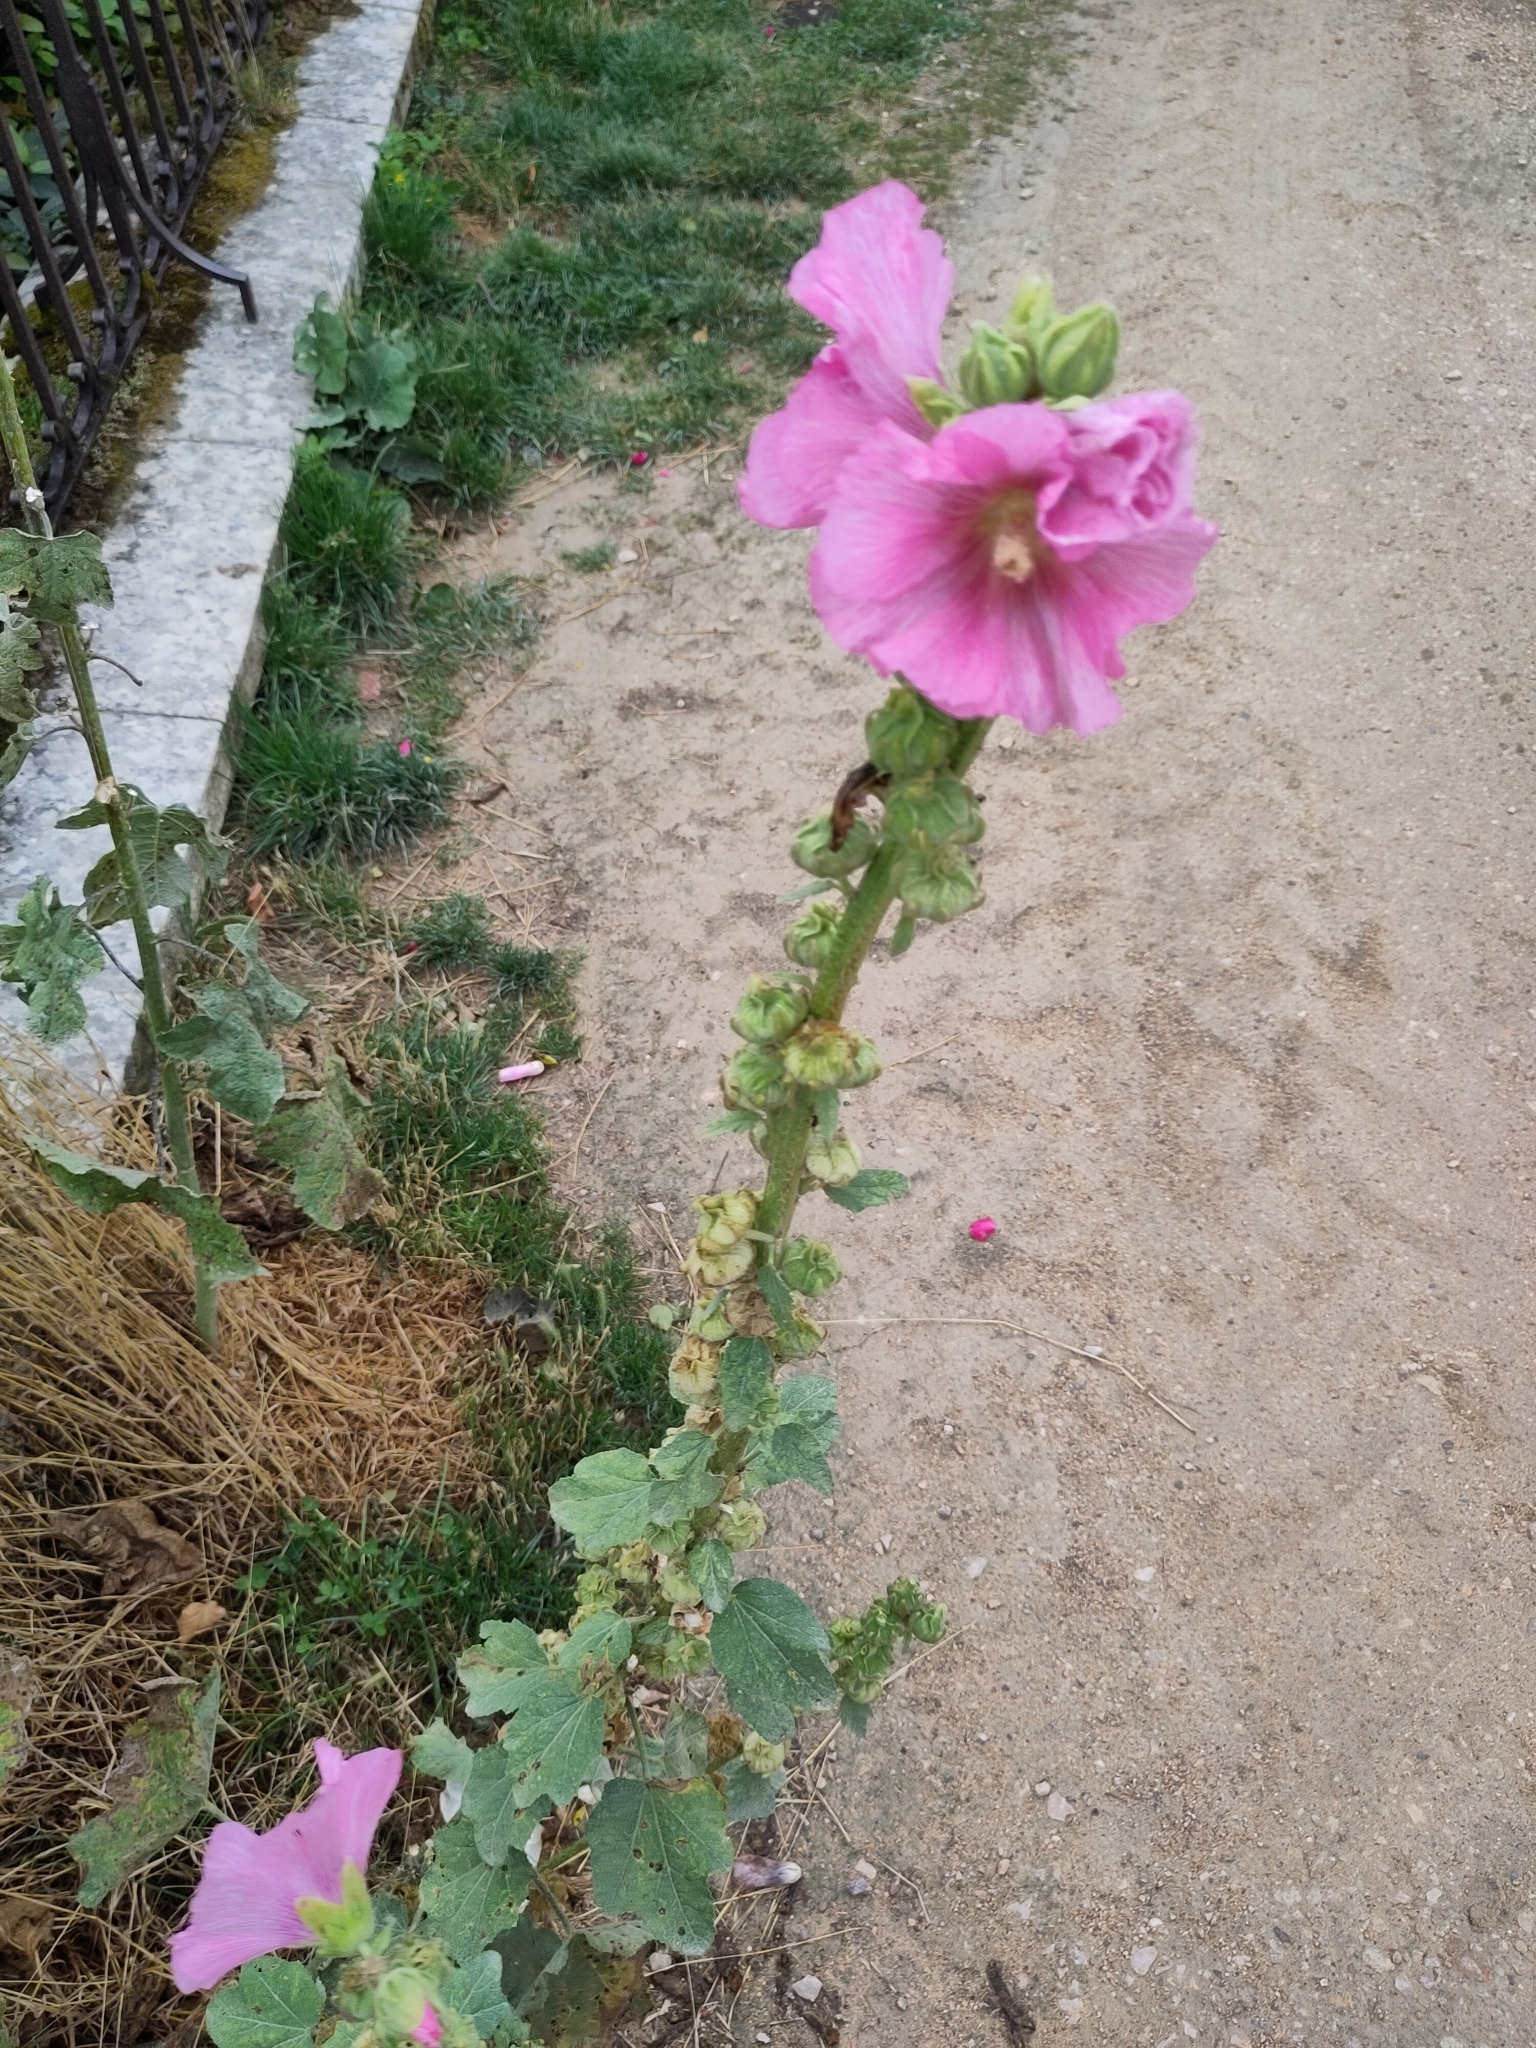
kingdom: Plantae
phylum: Tracheophyta
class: Magnoliopsida
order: Malvales
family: Malvaceae
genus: Alcea
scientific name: Alcea rosea
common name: Hollyhock
